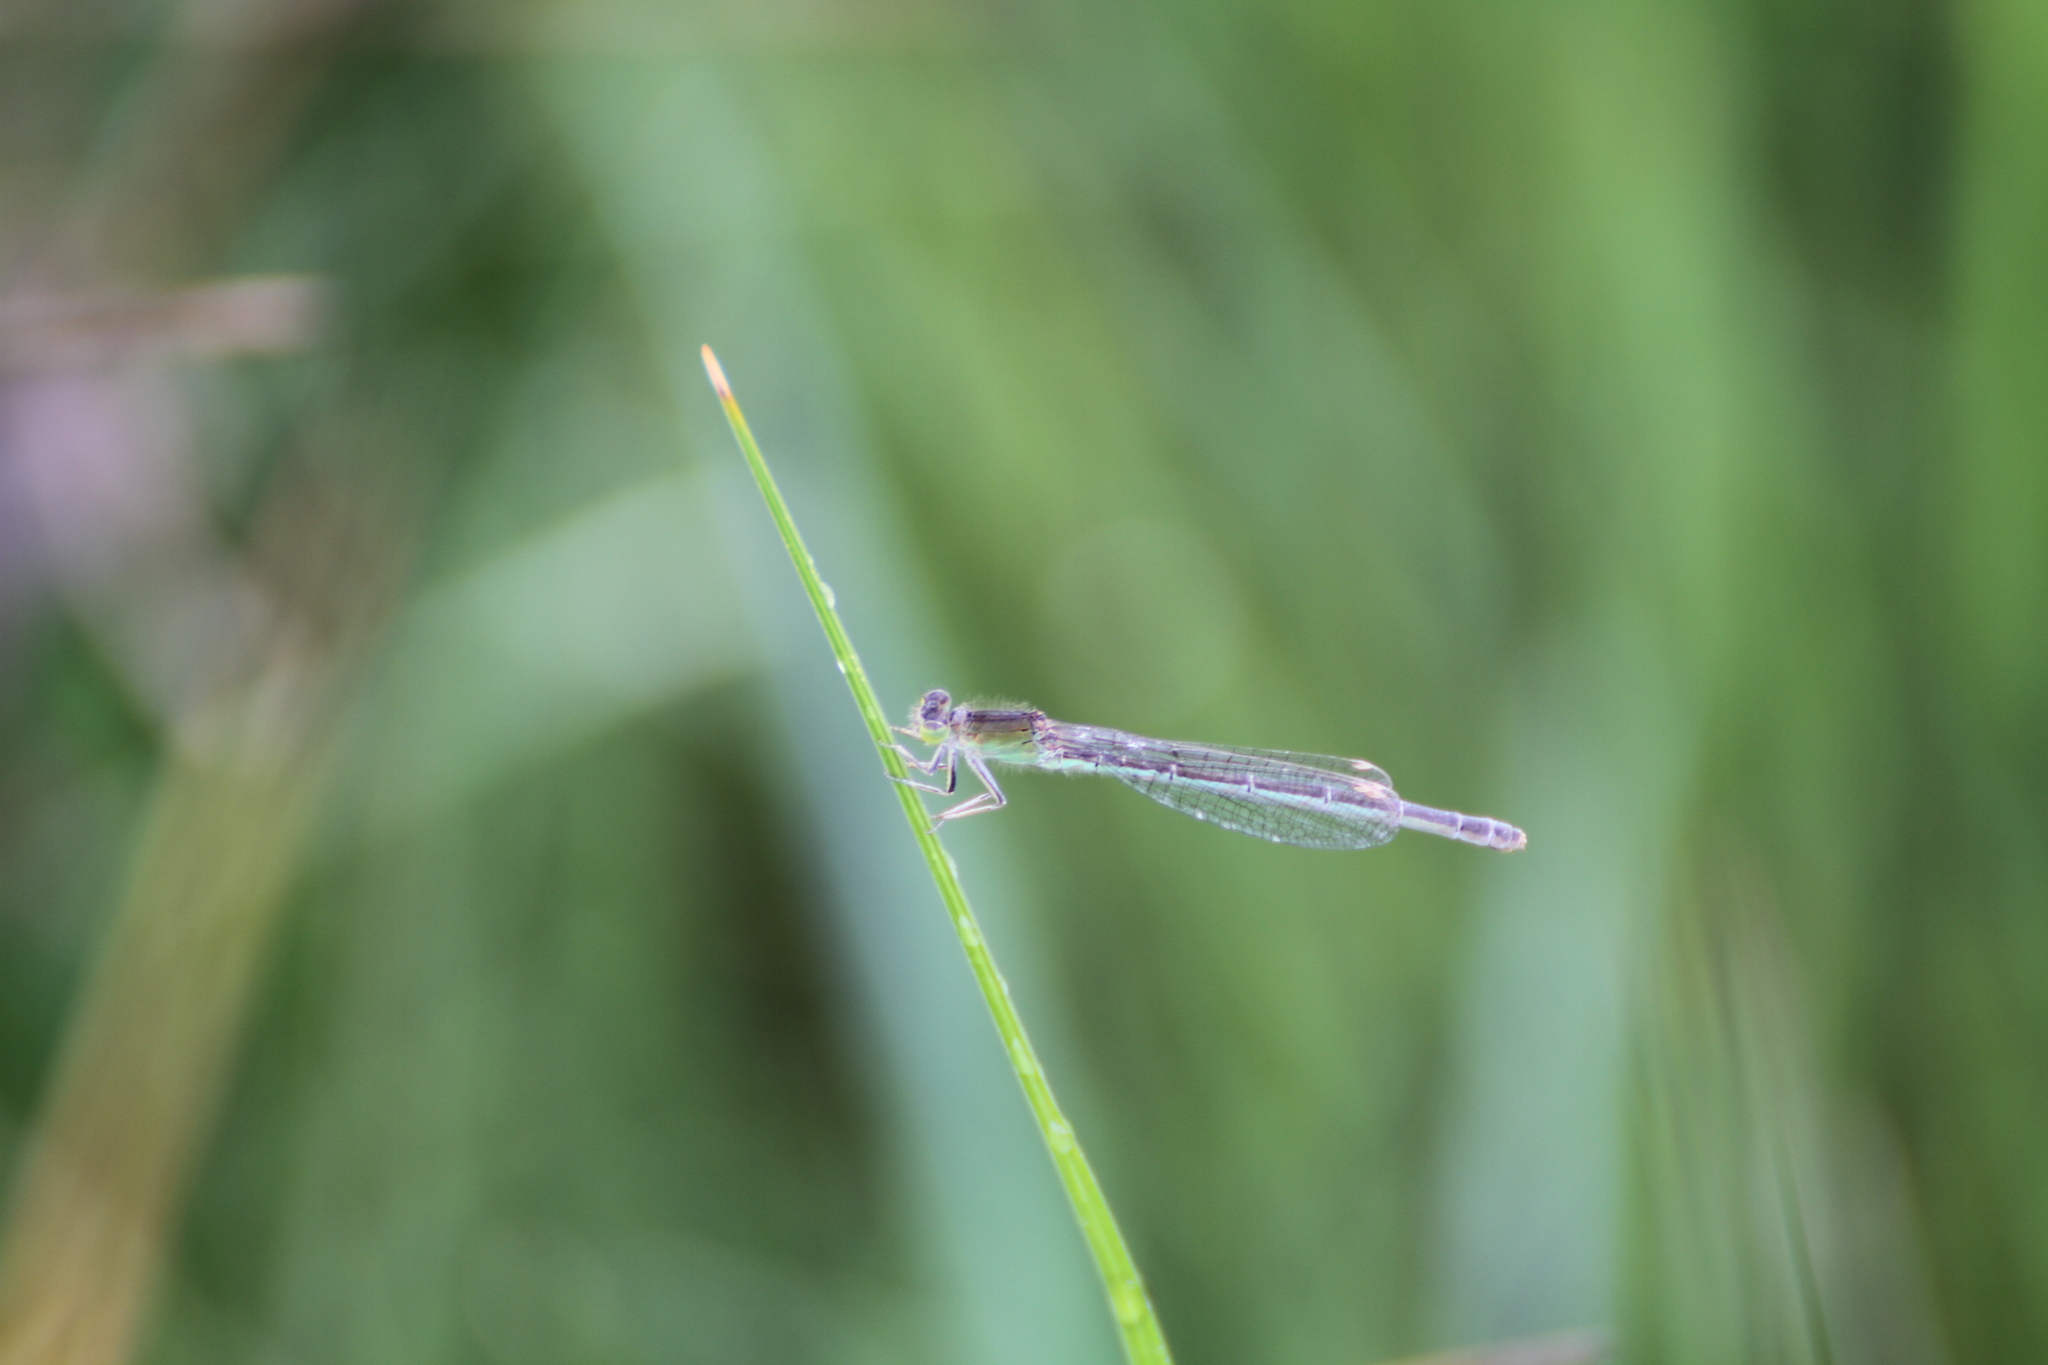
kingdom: Animalia
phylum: Arthropoda
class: Insecta
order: Odonata
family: Coenagrionidae
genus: Ischnura
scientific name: Ischnura pumilio
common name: Scarce blue-tailed damselfly
